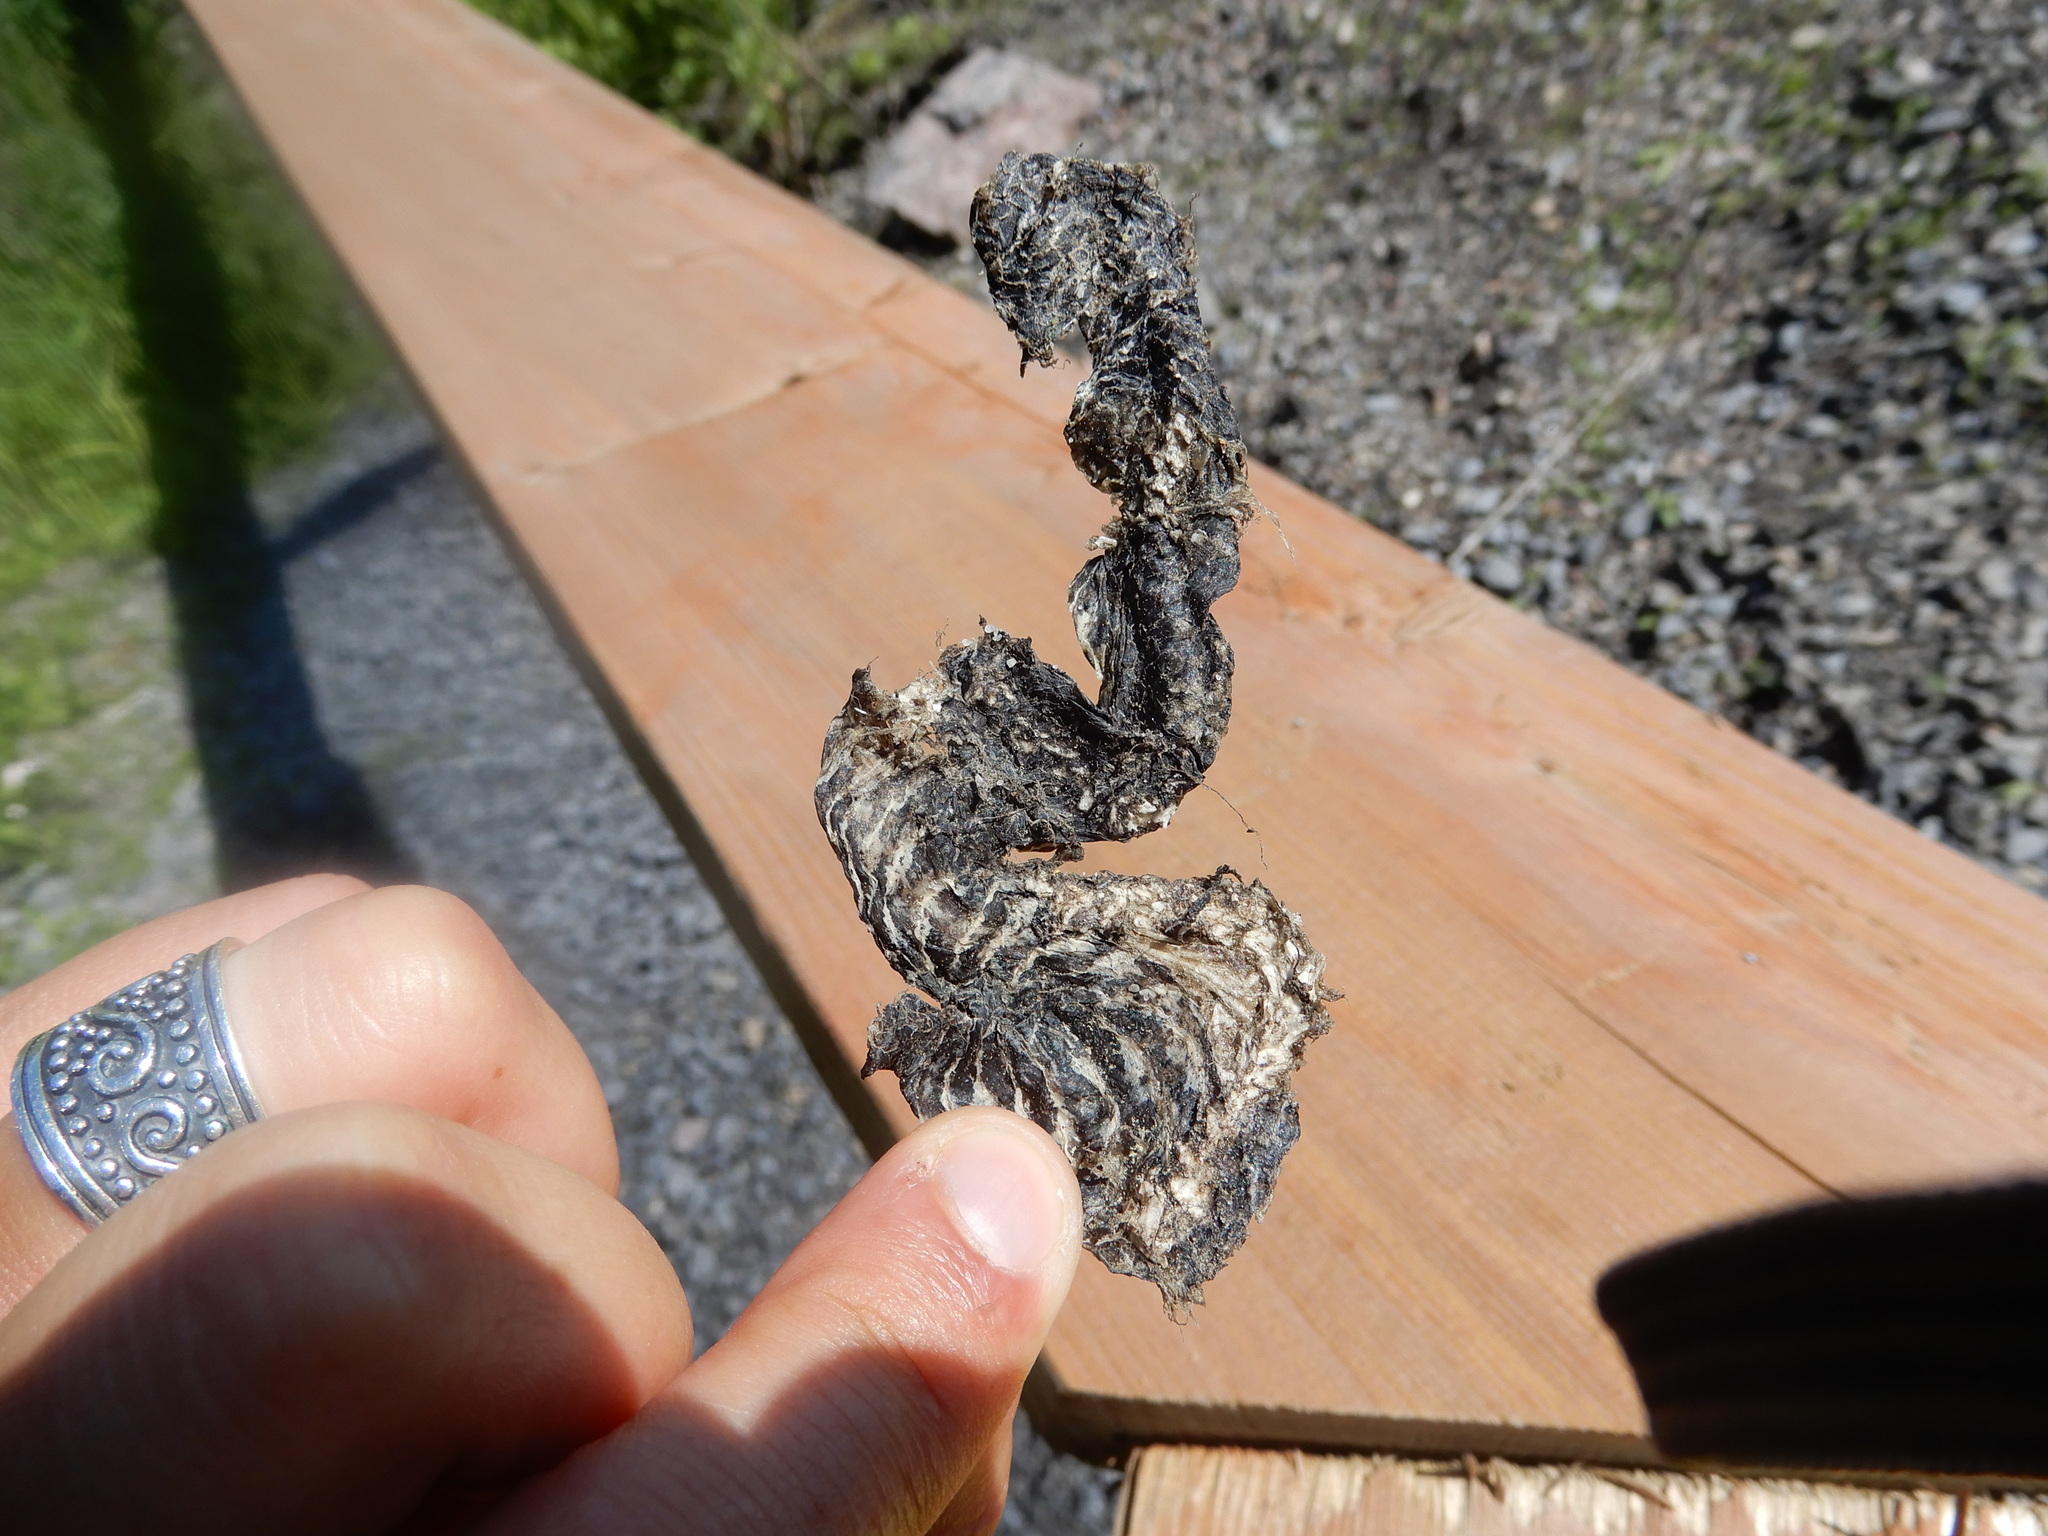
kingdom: Animalia
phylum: Chordata
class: Squamata
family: Colubridae
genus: Nerodia
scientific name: Nerodia sipedon
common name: Northern water snake
